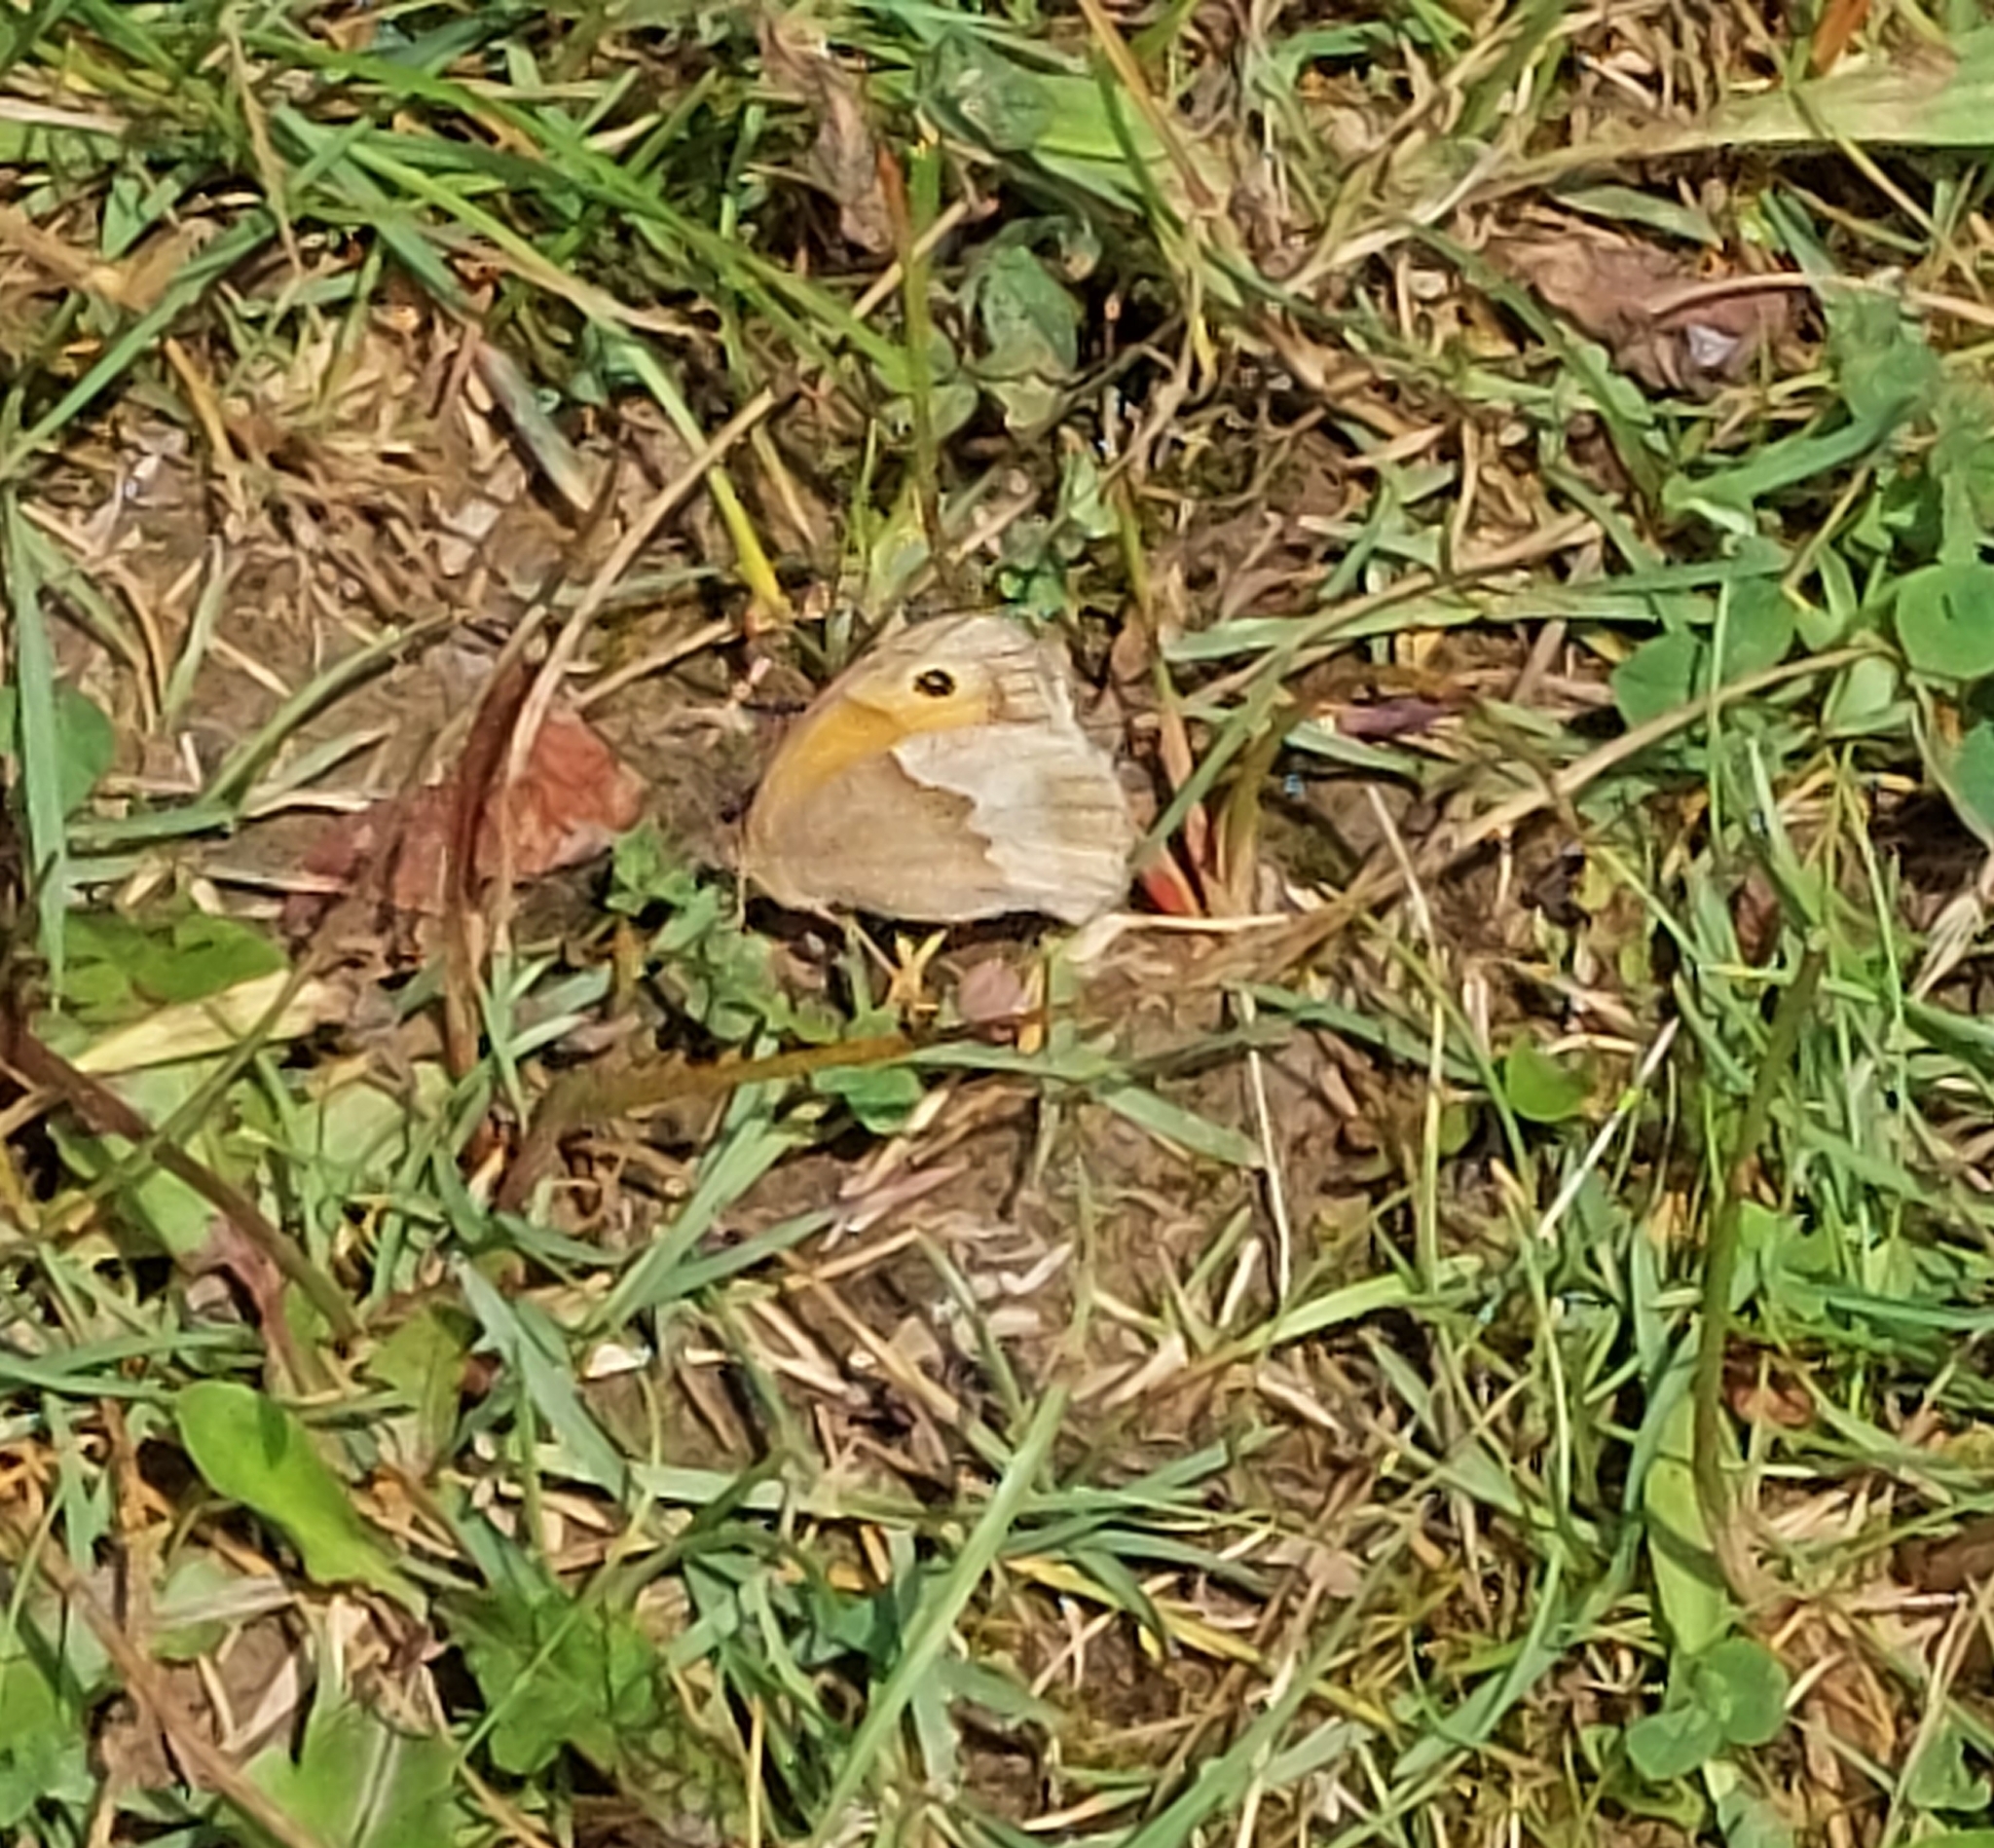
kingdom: Animalia
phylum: Arthropoda
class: Insecta
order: Lepidoptera
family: Nymphalidae
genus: Maniola
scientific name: Maniola jurtina
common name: Meadow brown
